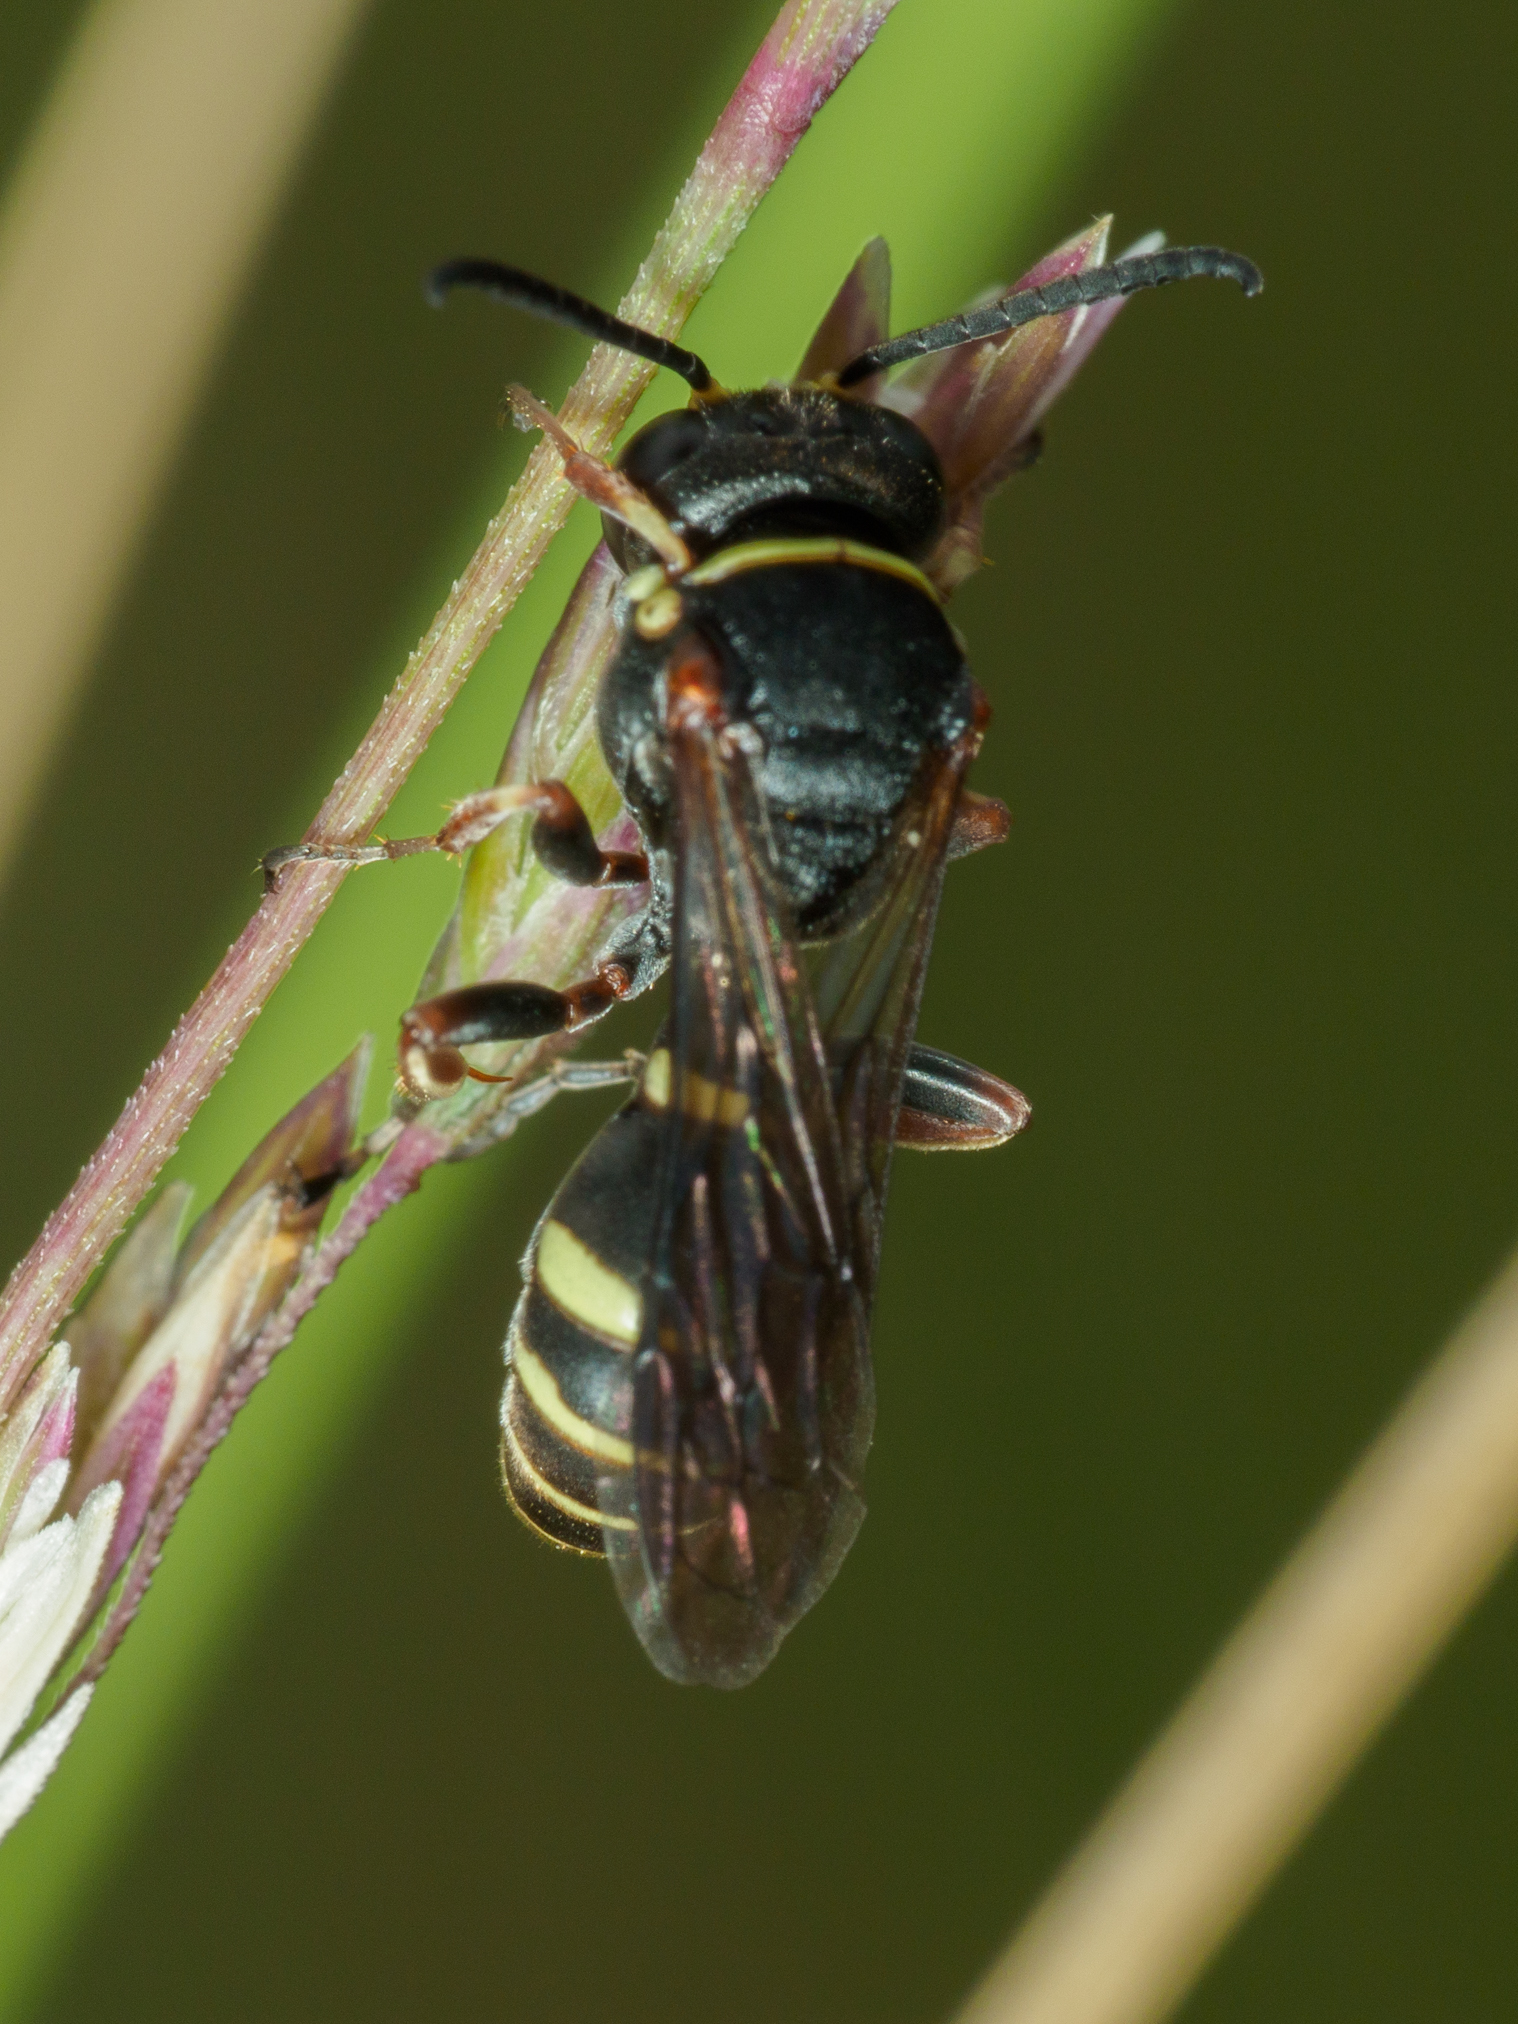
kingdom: Animalia
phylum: Arthropoda
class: Insecta
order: Hymenoptera
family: Crabronidae
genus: Austrogorytes
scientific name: Austrogorytes spryi
